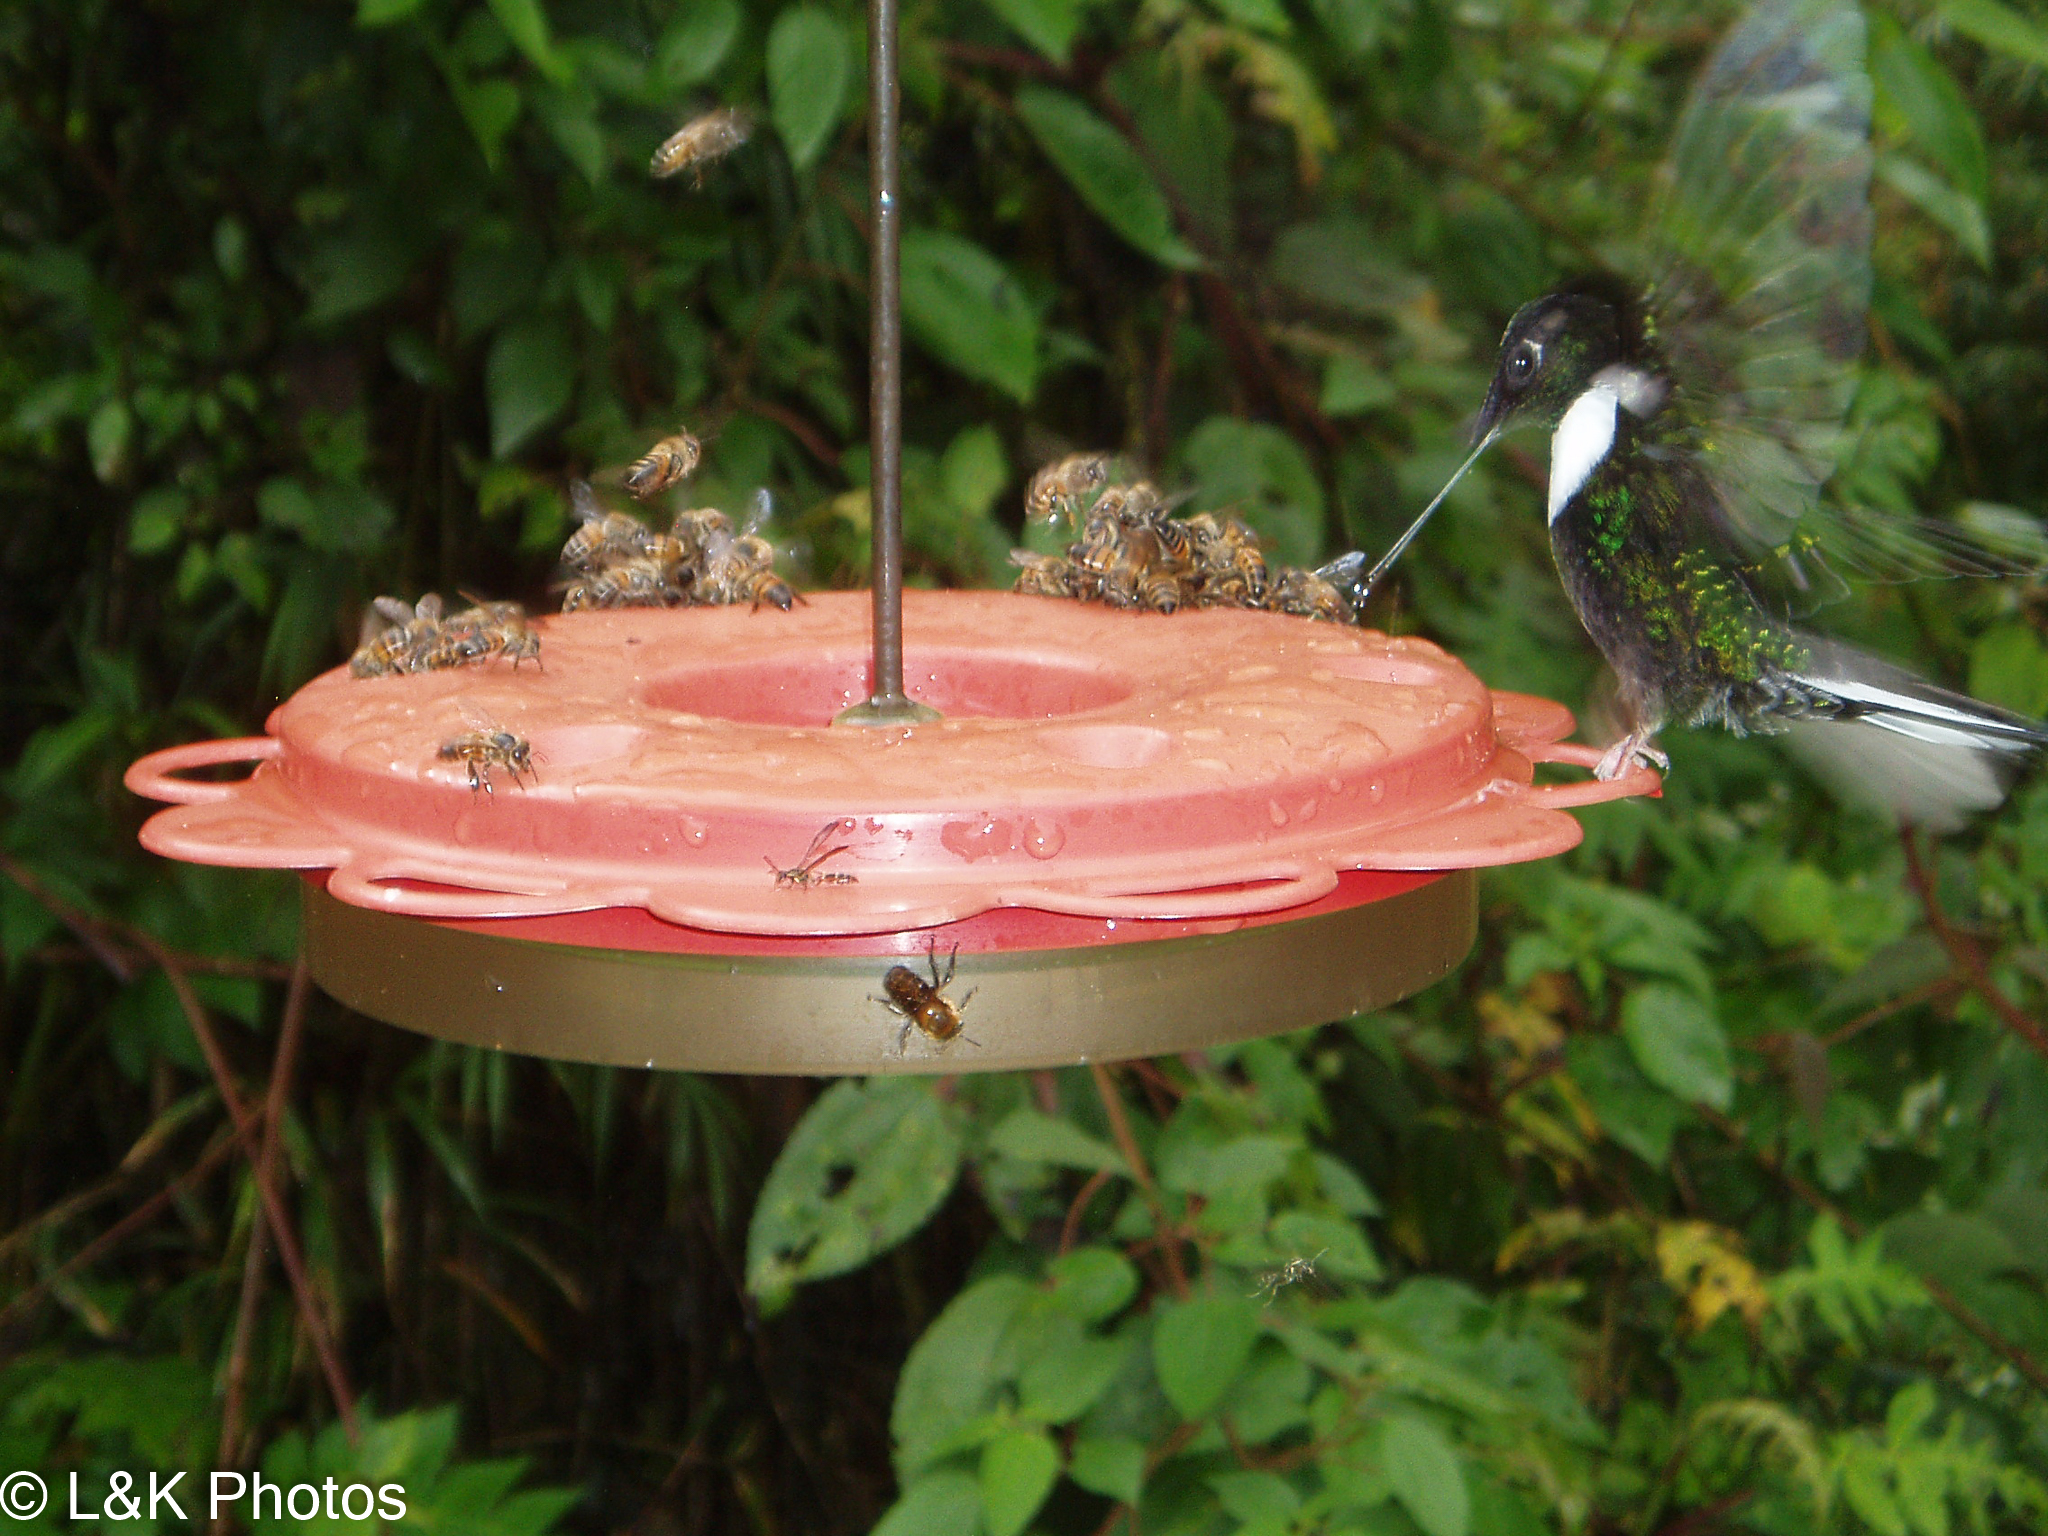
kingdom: Animalia
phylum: Chordata
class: Aves
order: Apodiformes
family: Trochilidae
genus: Coeligena
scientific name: Coeligena torquata
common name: Collared inca
